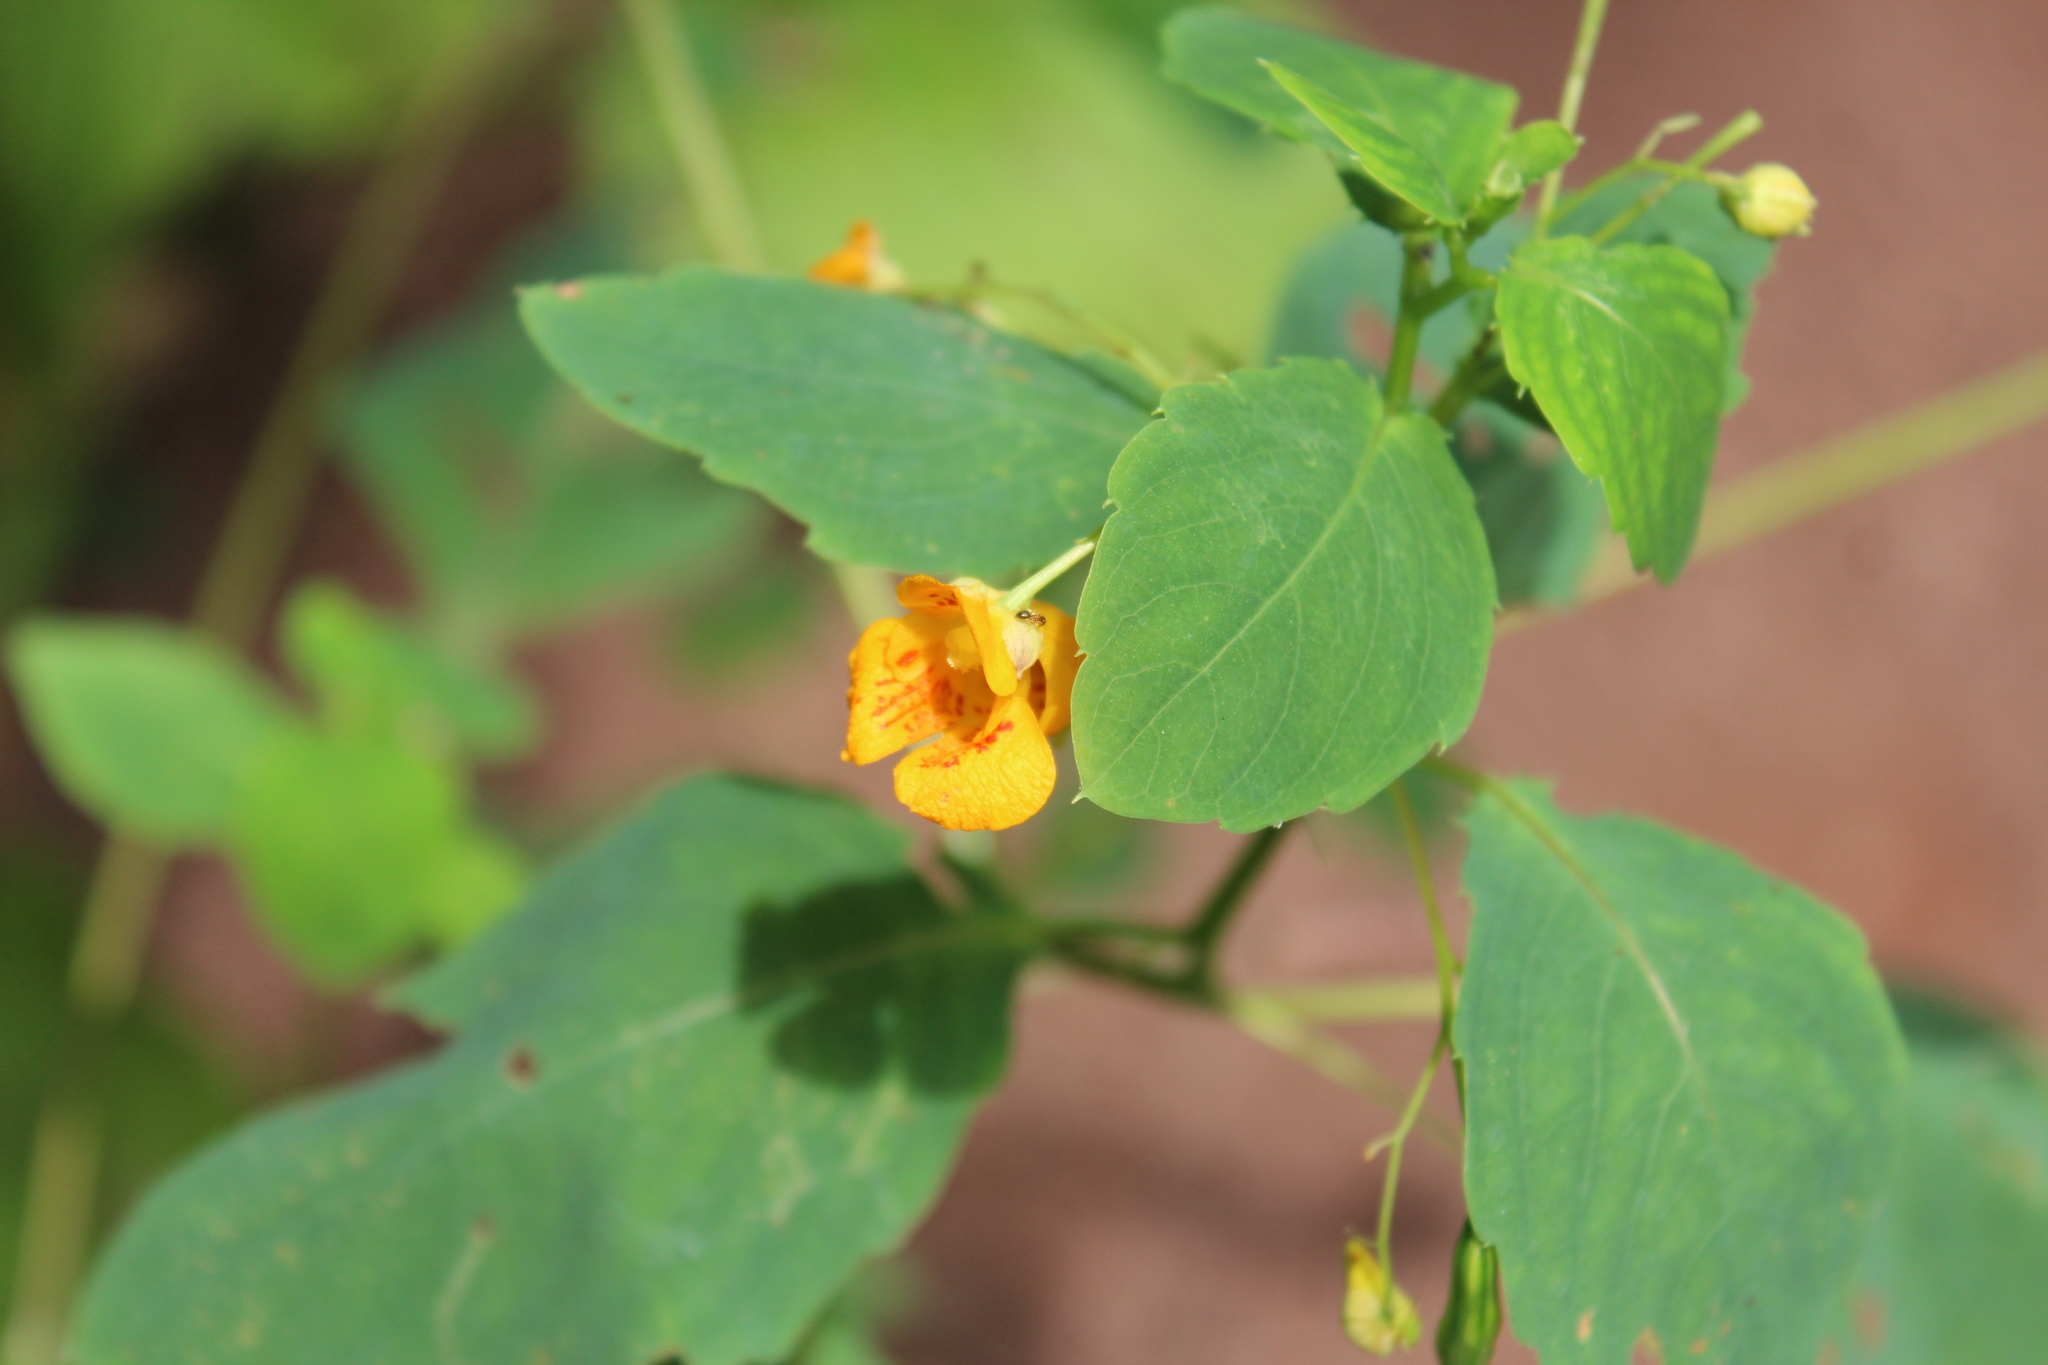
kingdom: Plantae
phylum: Tracheophyta
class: Magnoliopsida
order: Ericales
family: Balsaminaceae
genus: Impatiens
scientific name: Impatiens capensis
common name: Orange balsam
